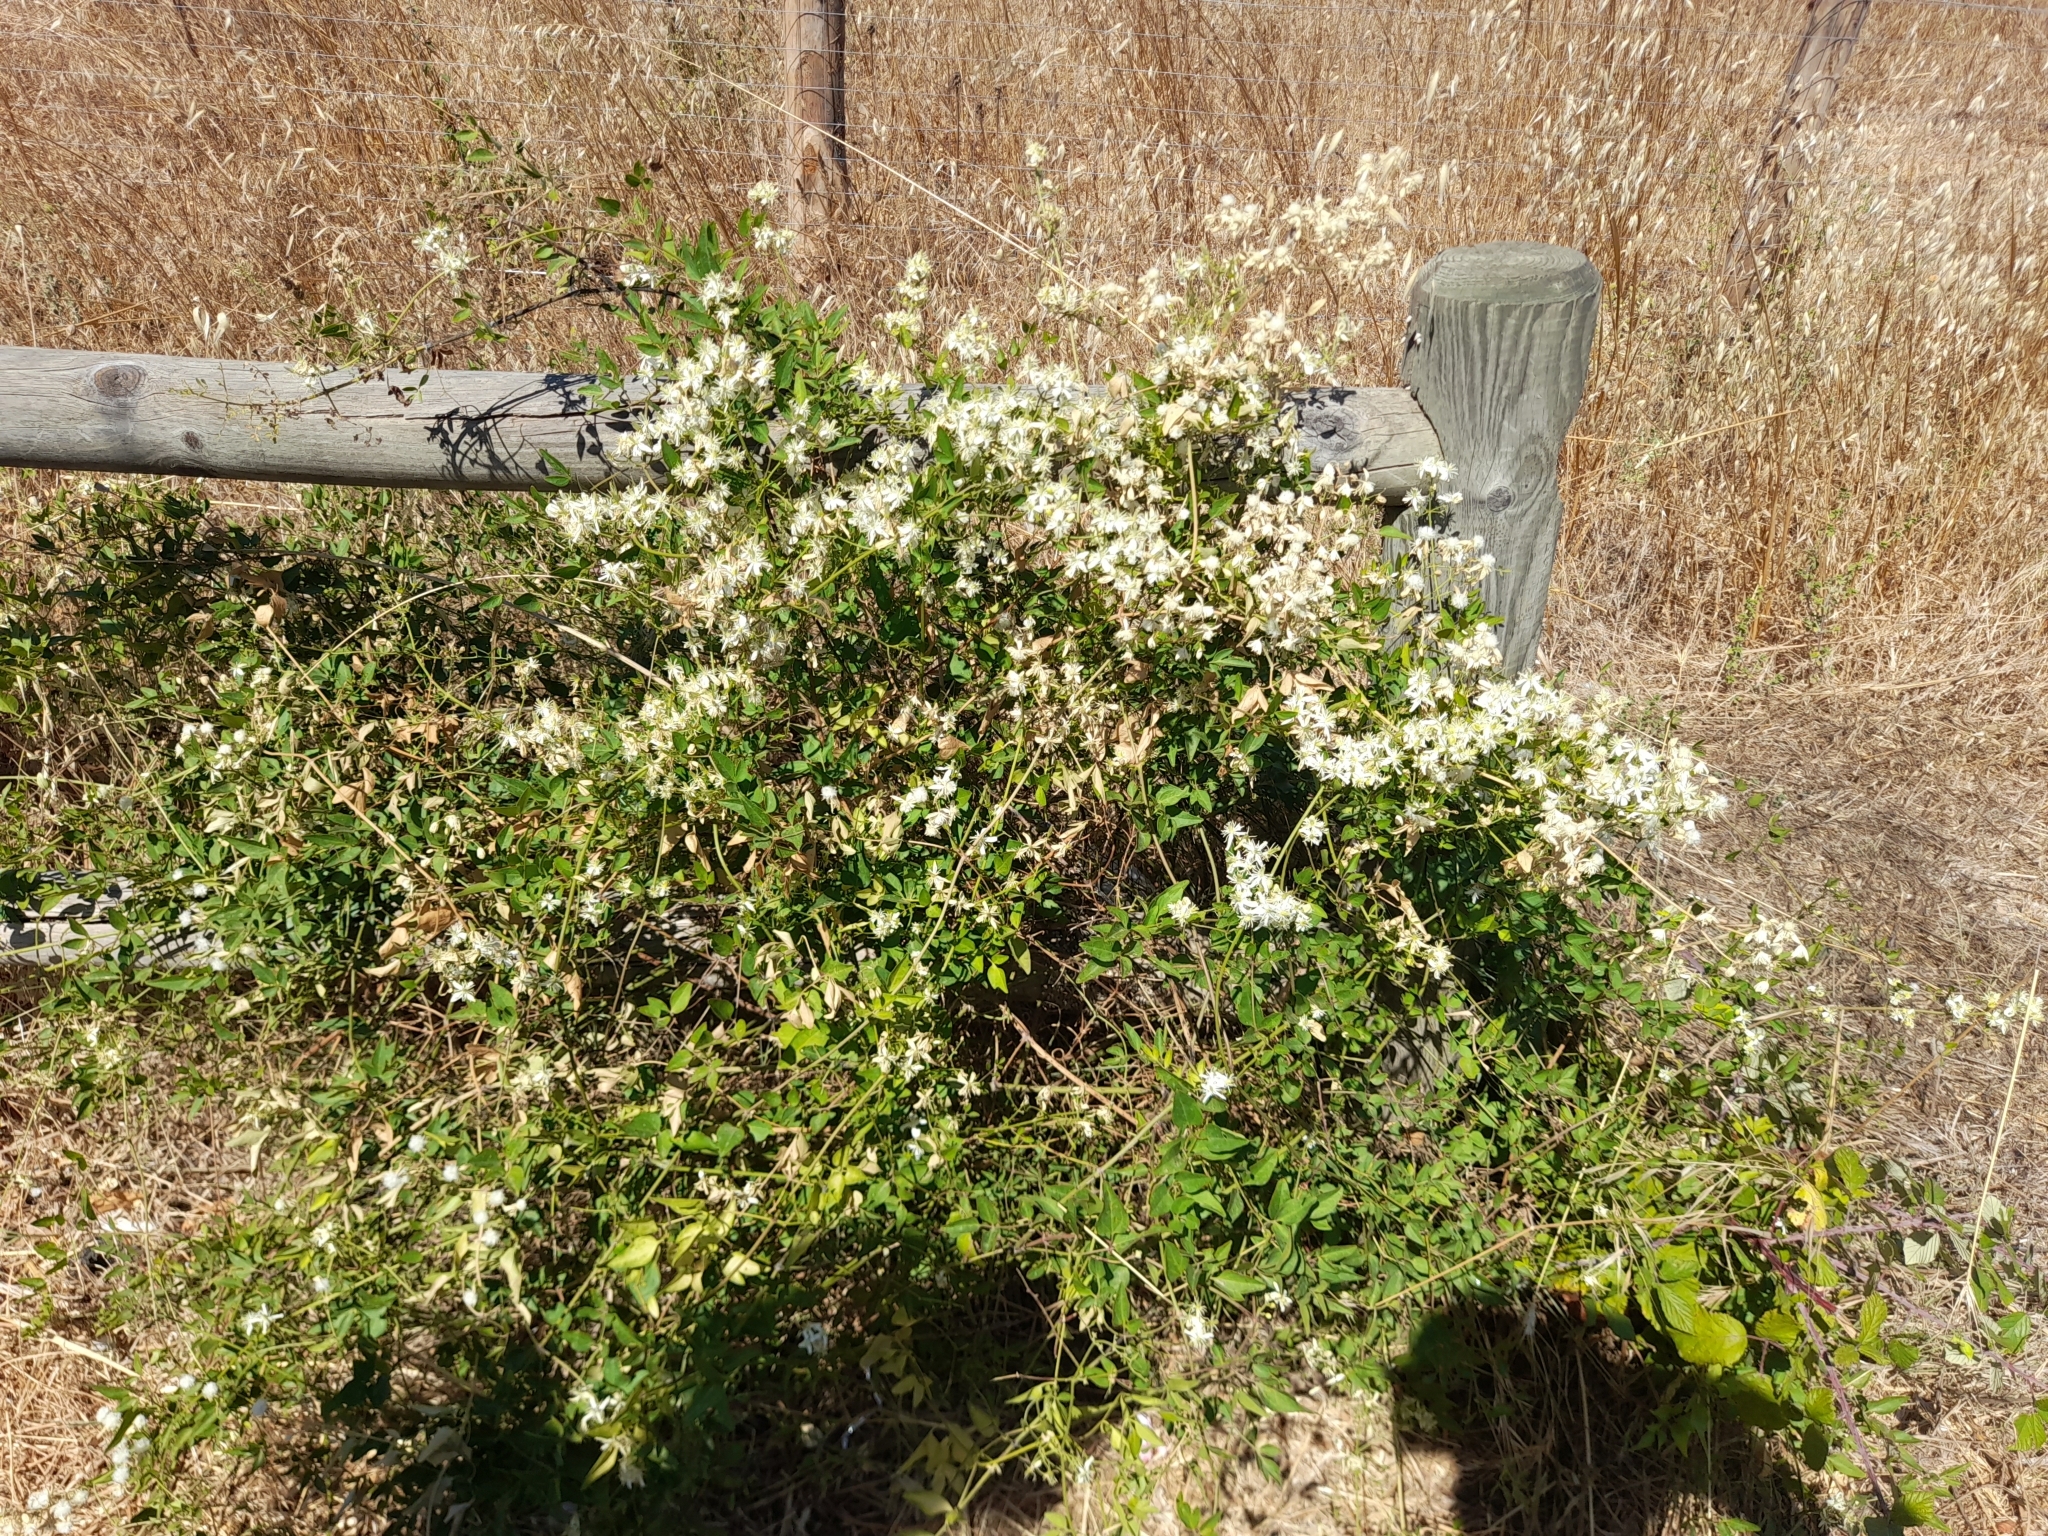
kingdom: Plantae
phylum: Tracheophyta
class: Magnoliopsida
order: Ranunculales
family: Ranunculaceae
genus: Clematis
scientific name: Clematis flammula
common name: Virgin's-bower
